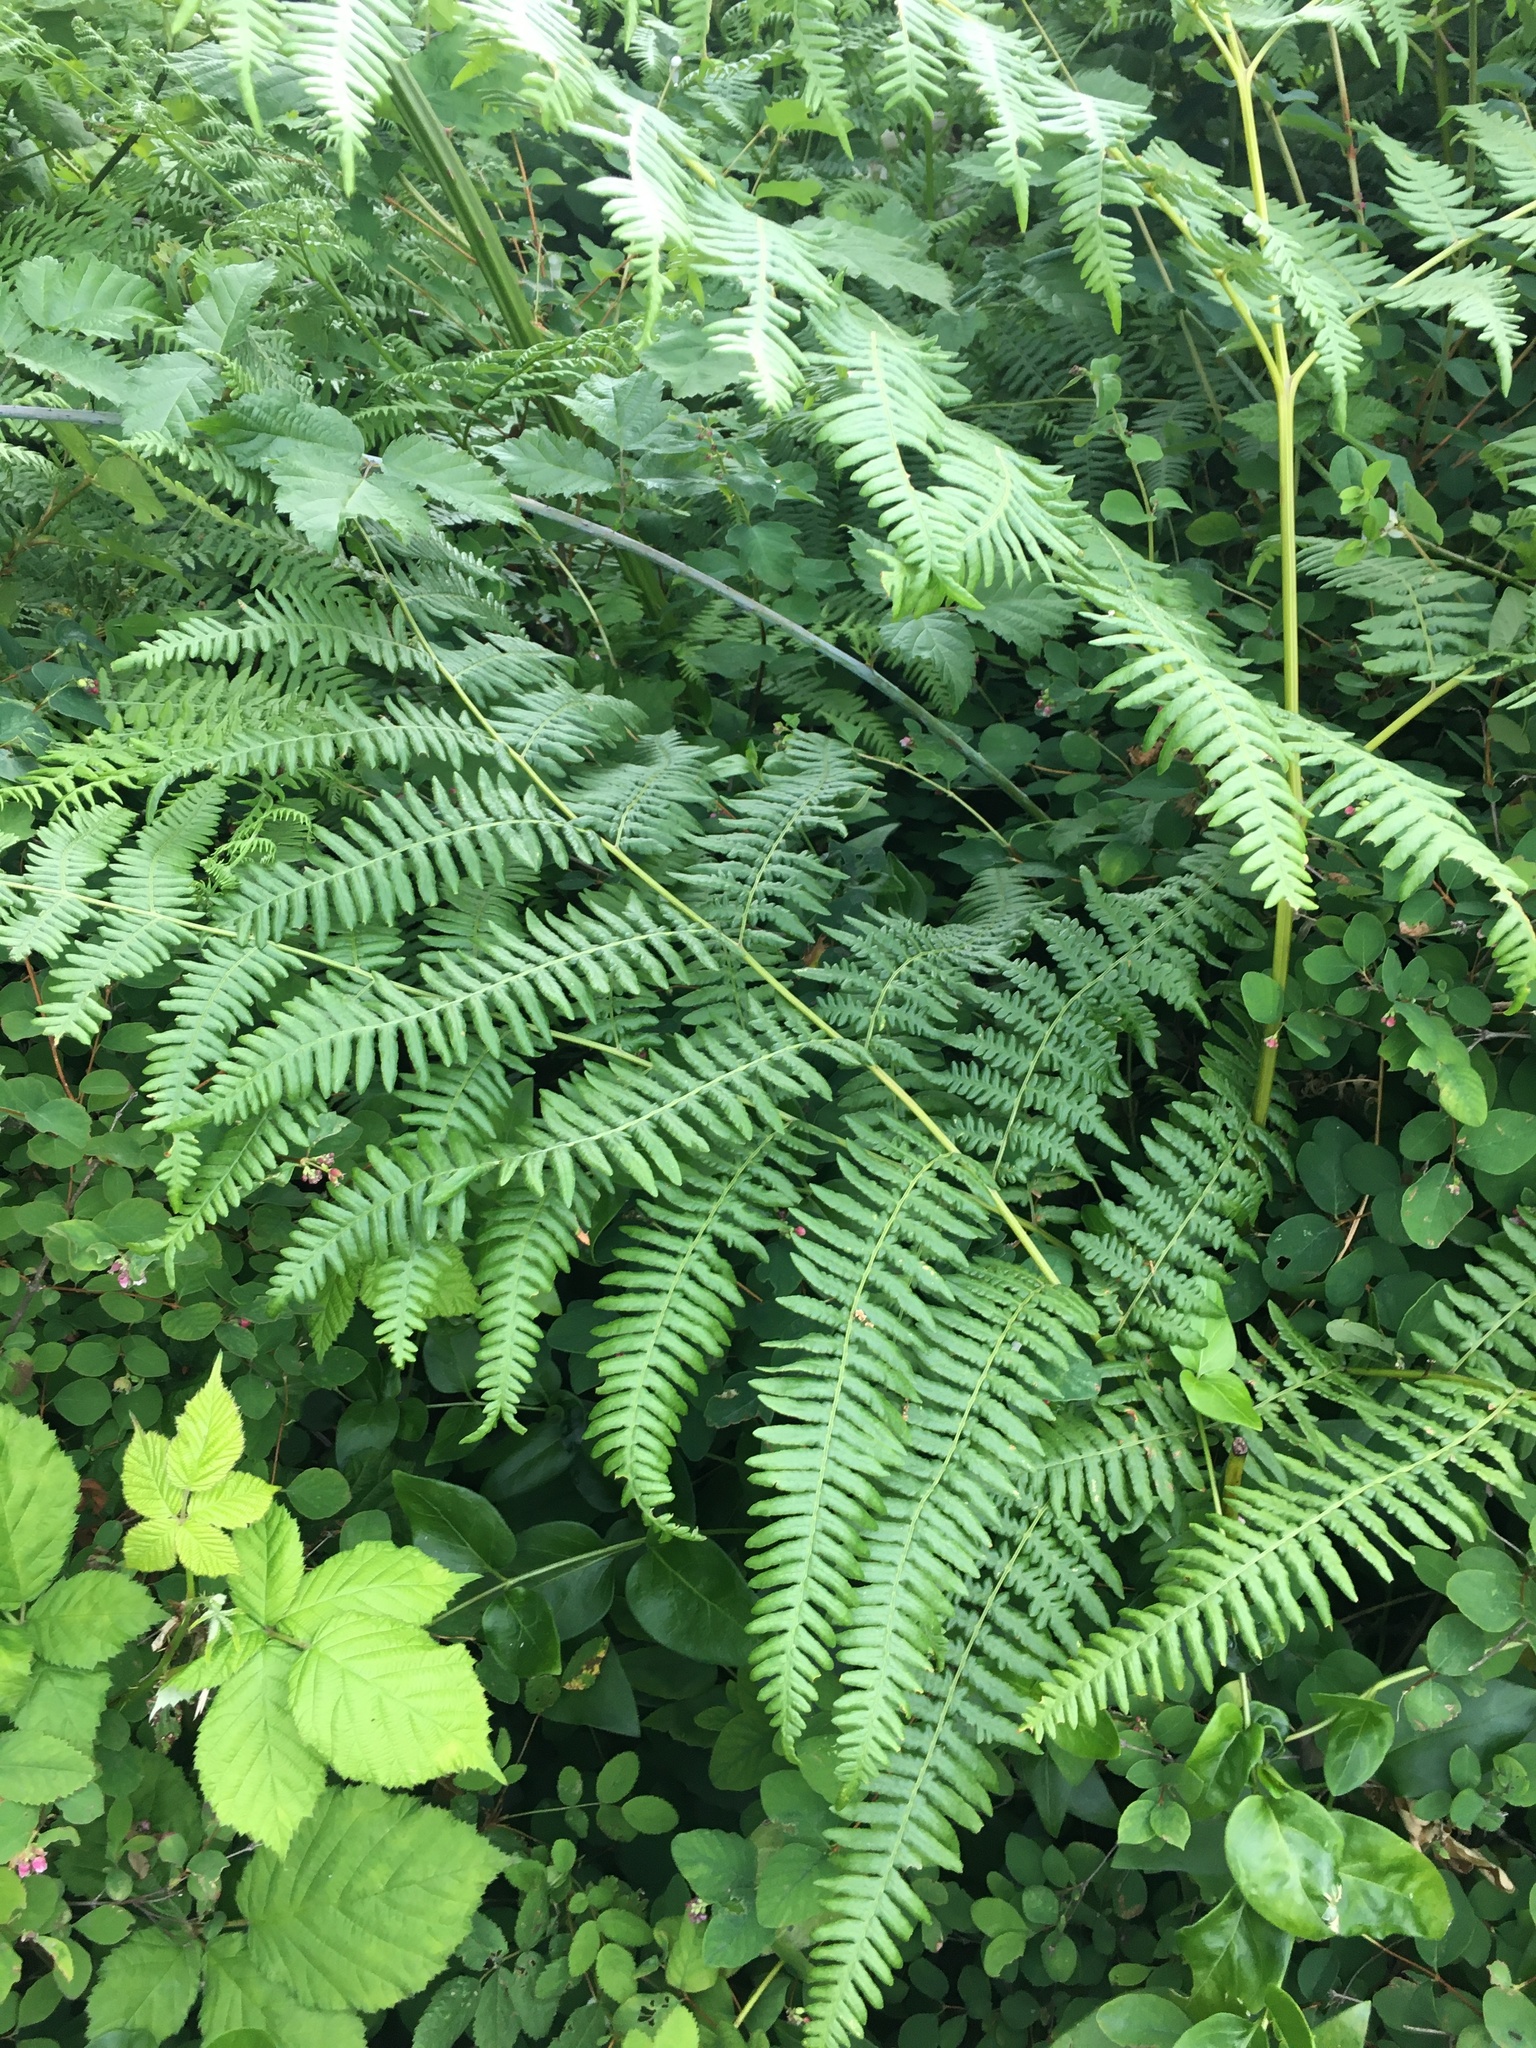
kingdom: Plantae
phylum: Tracheophyta
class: Polypodiopsida
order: Polypodiales
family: Dennstaedtiaceae
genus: Pteridium
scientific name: Pteridium aquilinum
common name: Bracken
